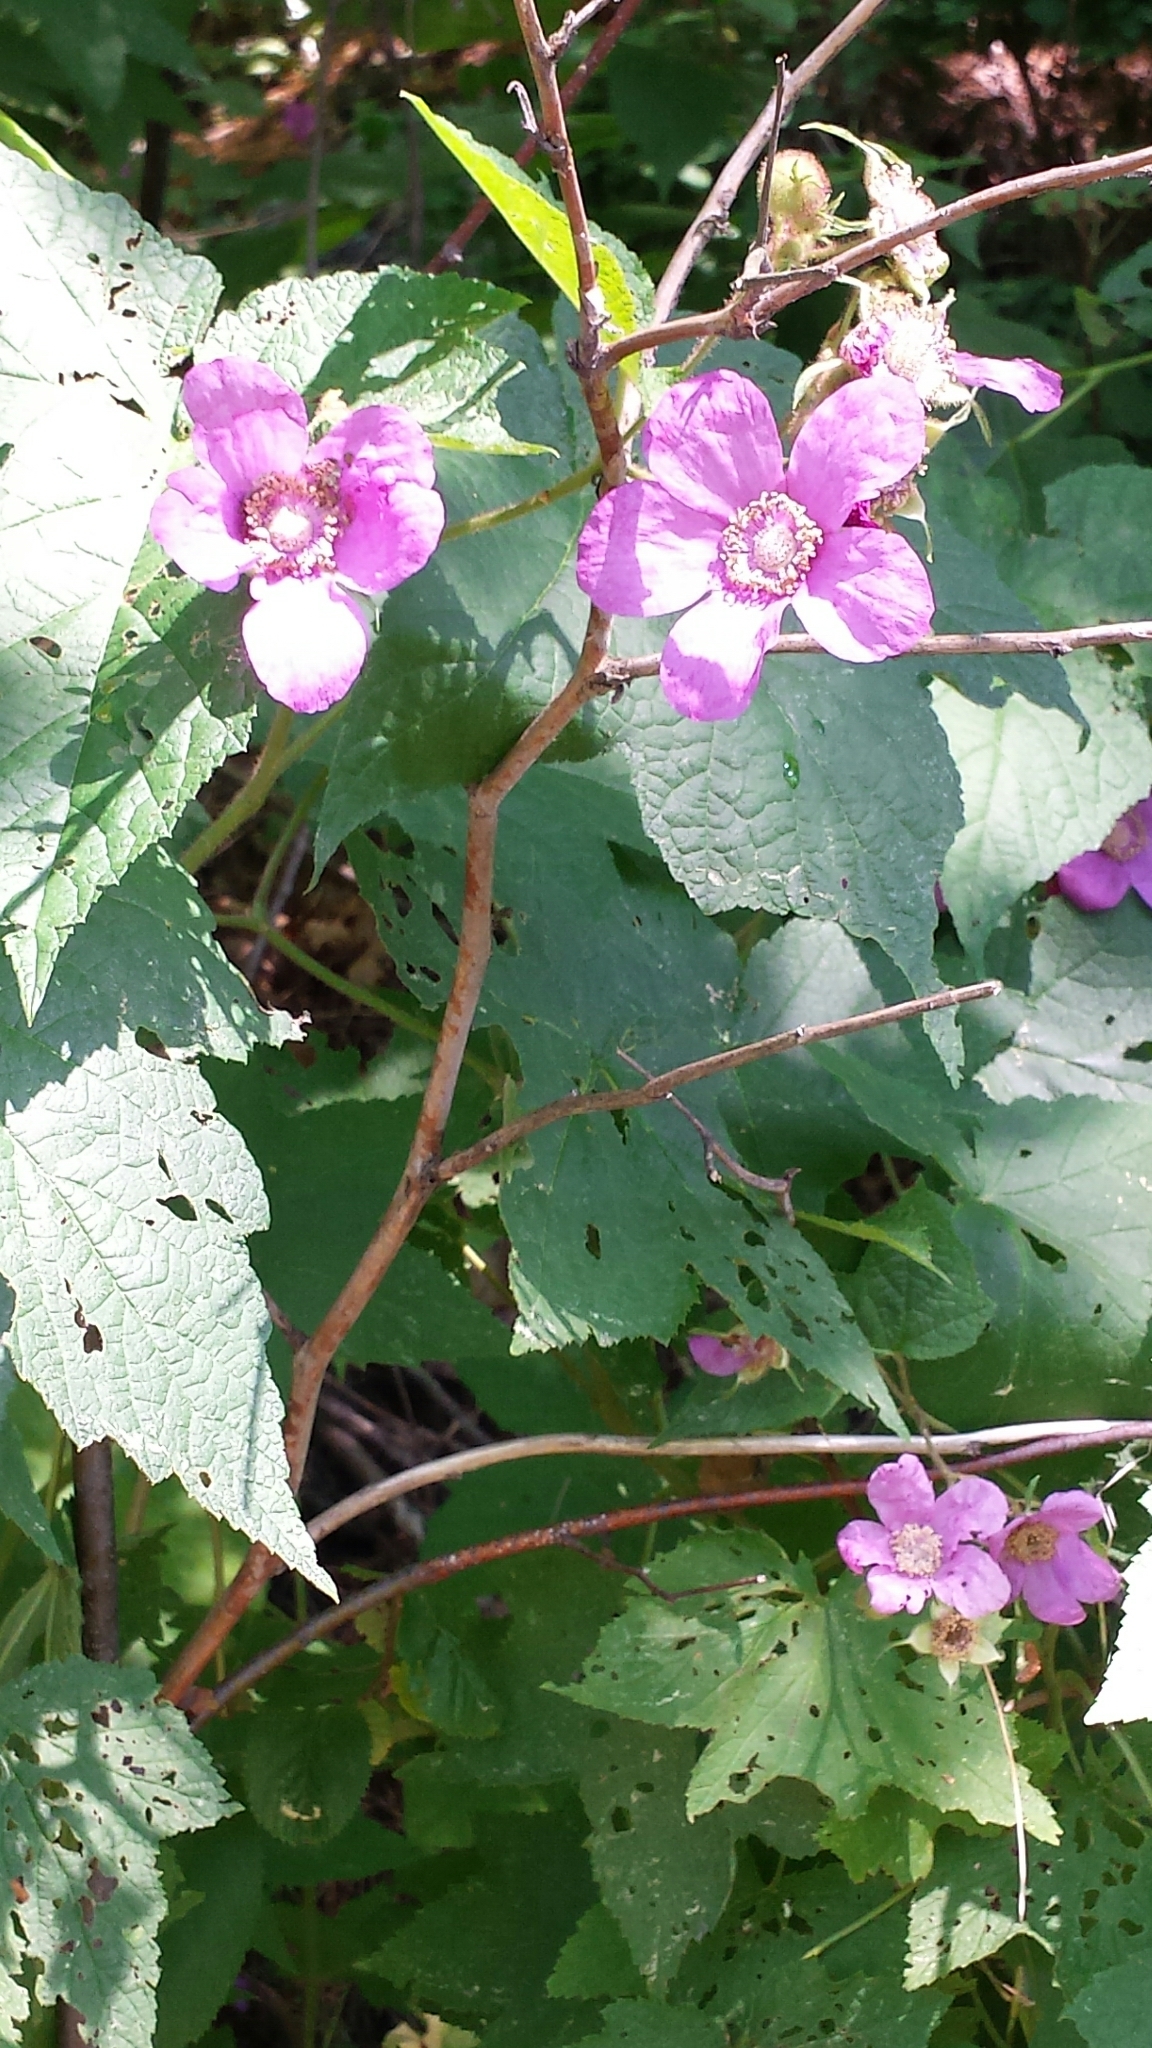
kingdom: Plantae
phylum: Tracheophyta
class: Magnoliopsida
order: Rosales
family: Rosaceae
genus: Rubus
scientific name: Rubus odoratus
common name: Purple-flowered raspberry
